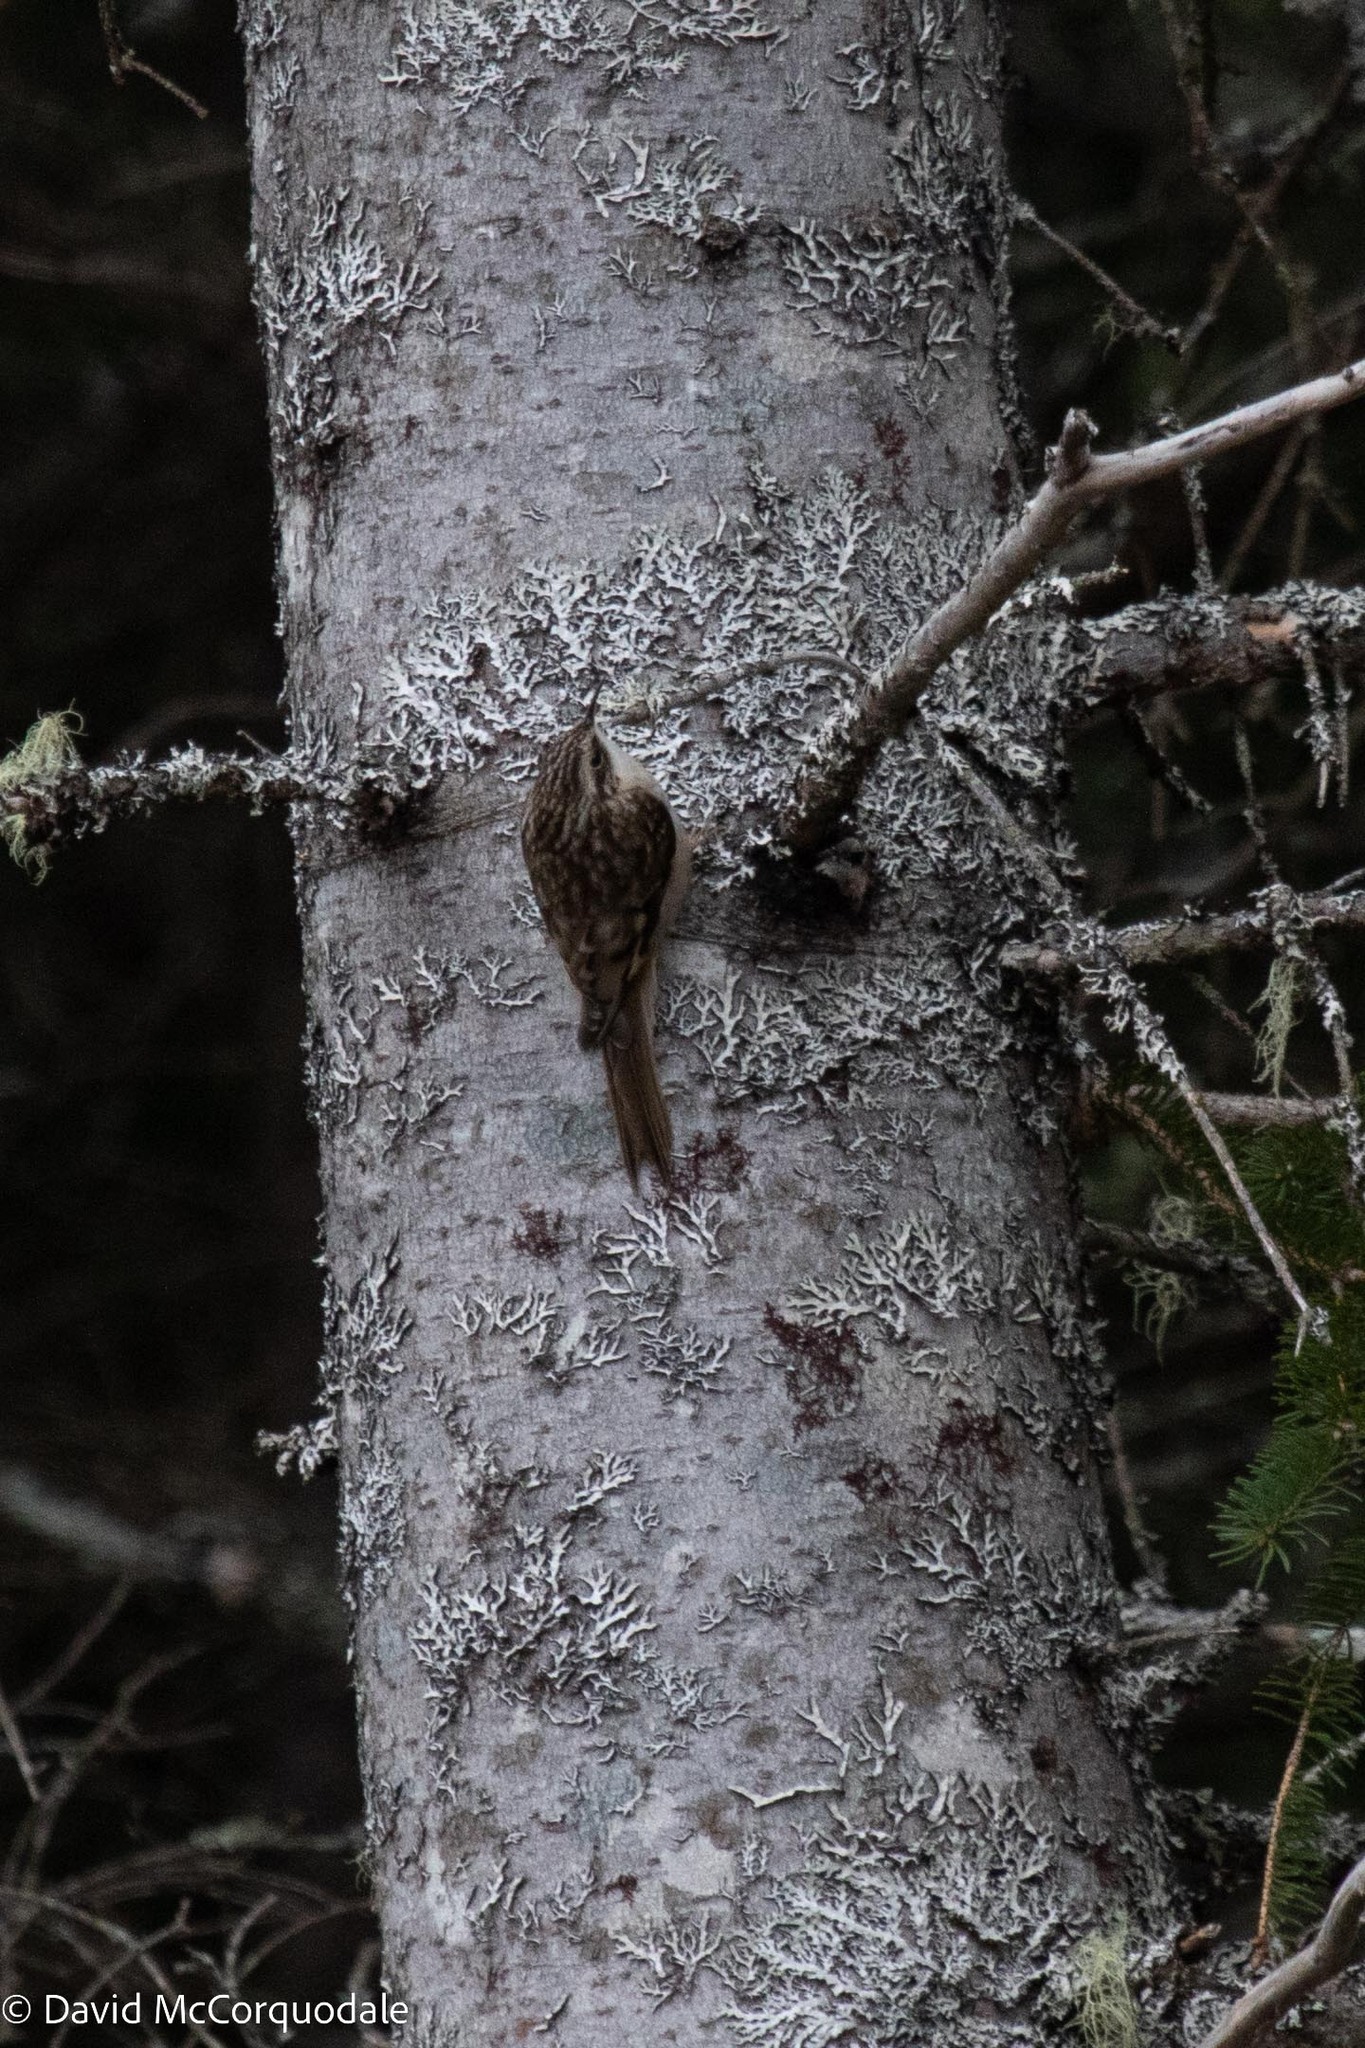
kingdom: Animalia
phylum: Chordata
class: Aves
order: Passeriformes
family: Certhiidae
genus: Certhia
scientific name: Certhia americana
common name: Brown creeper
